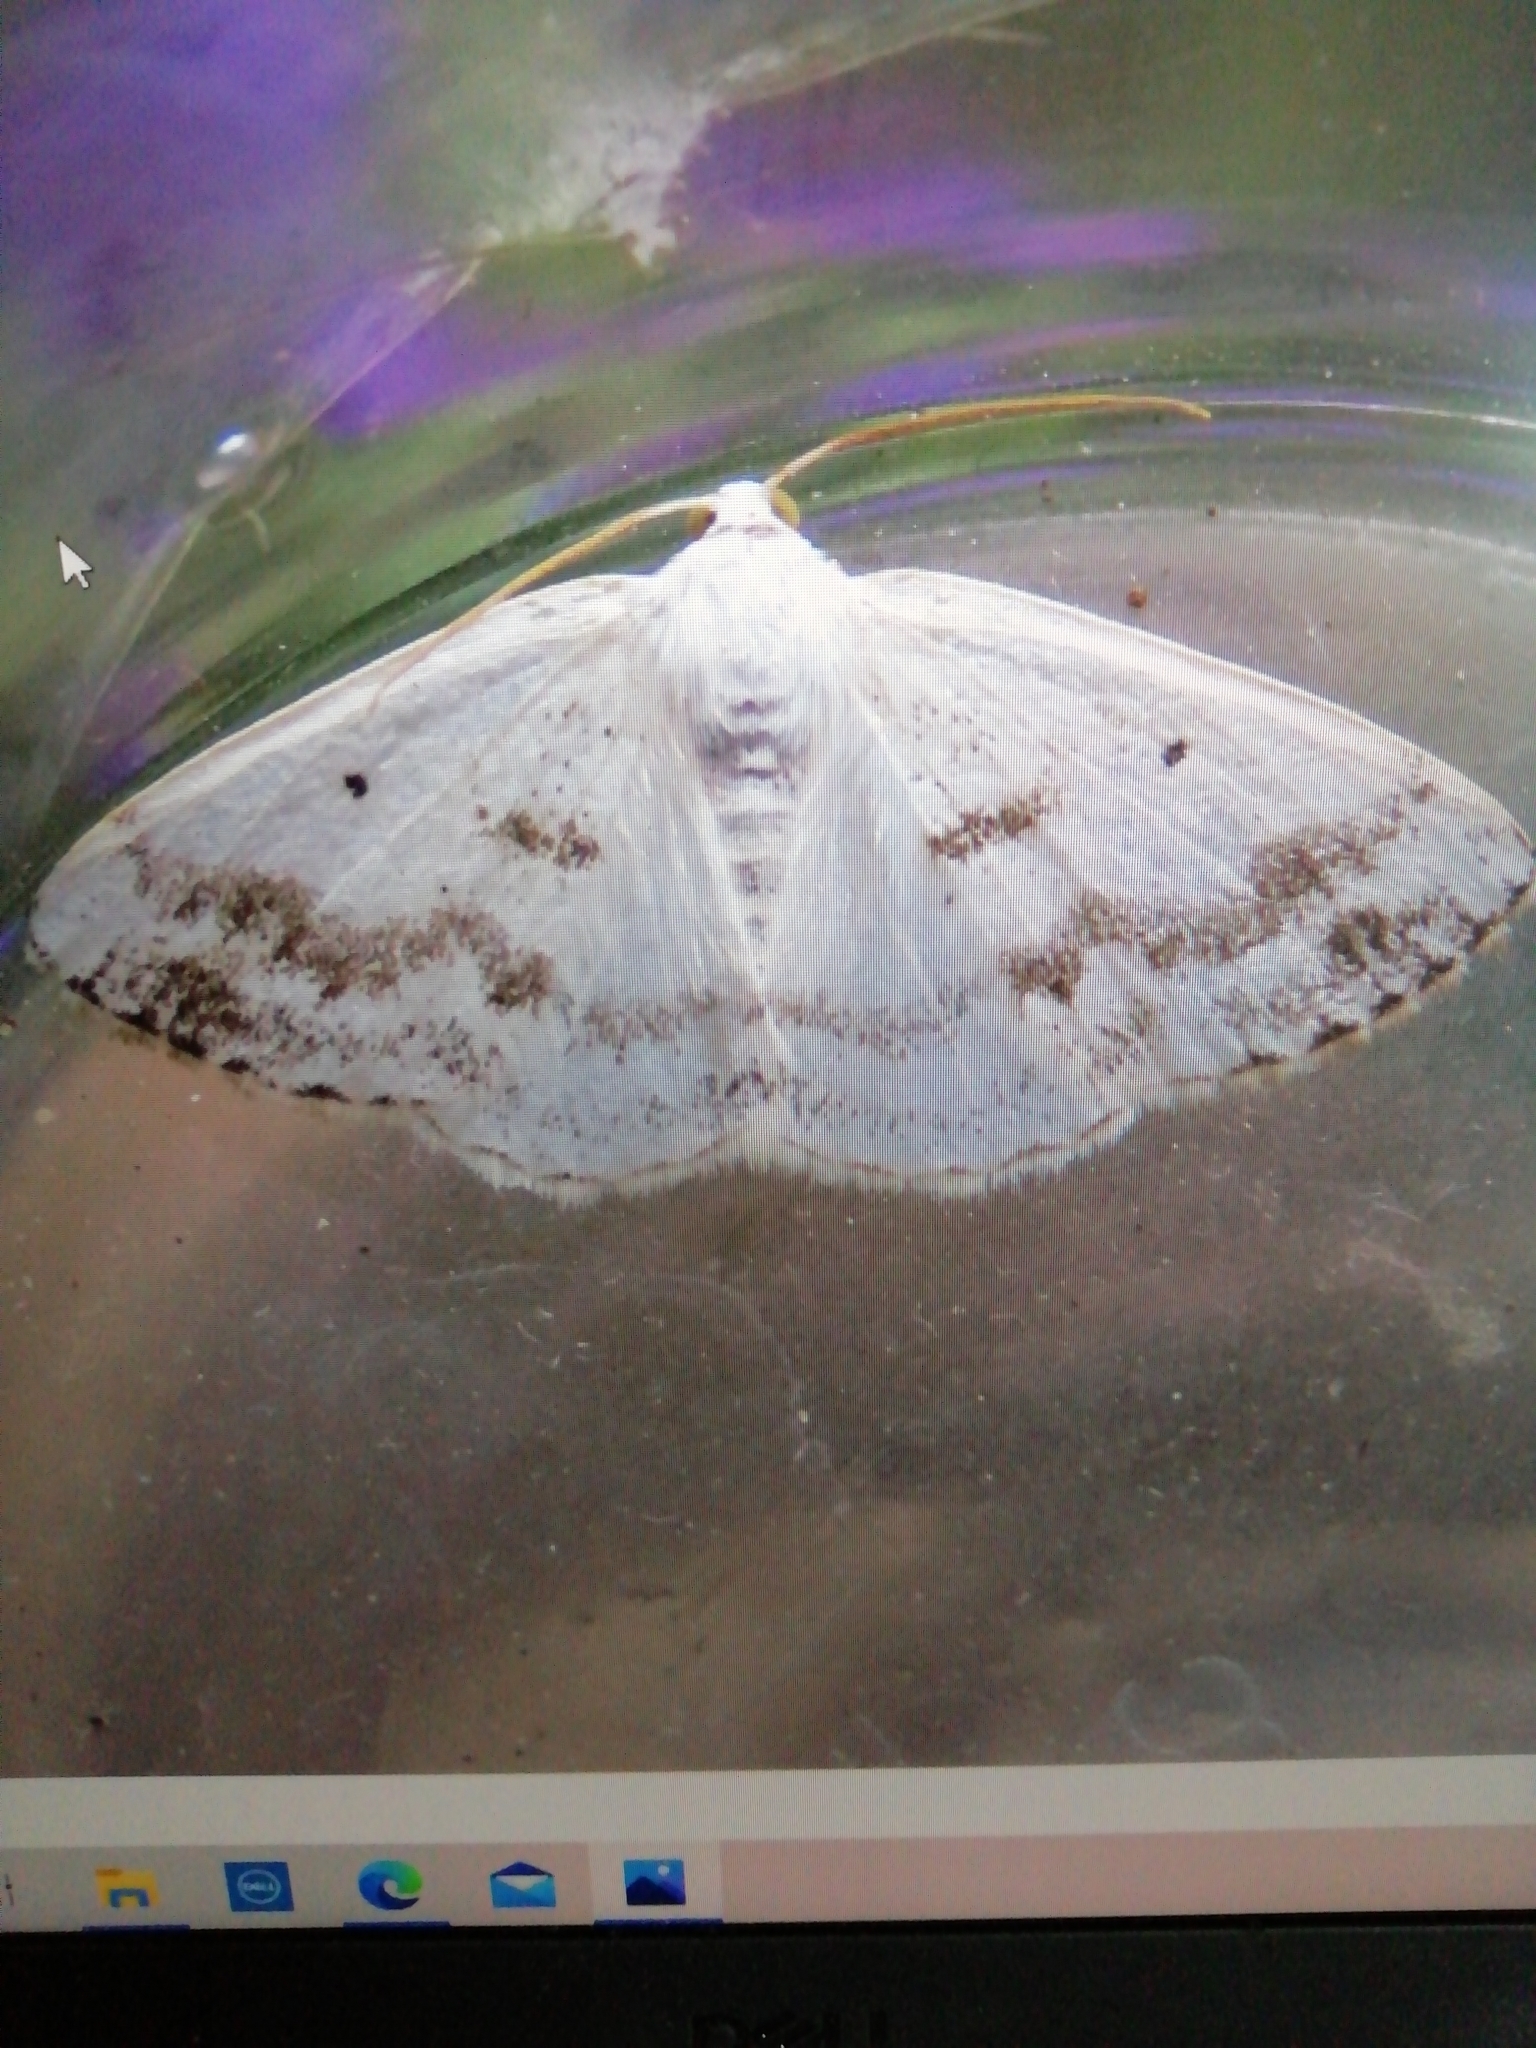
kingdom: Animalia
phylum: Arthropoda
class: Insecta
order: Lepidoptera
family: Geometridae
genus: Lomographa
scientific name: Lomographa temerata
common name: Clouded silver
